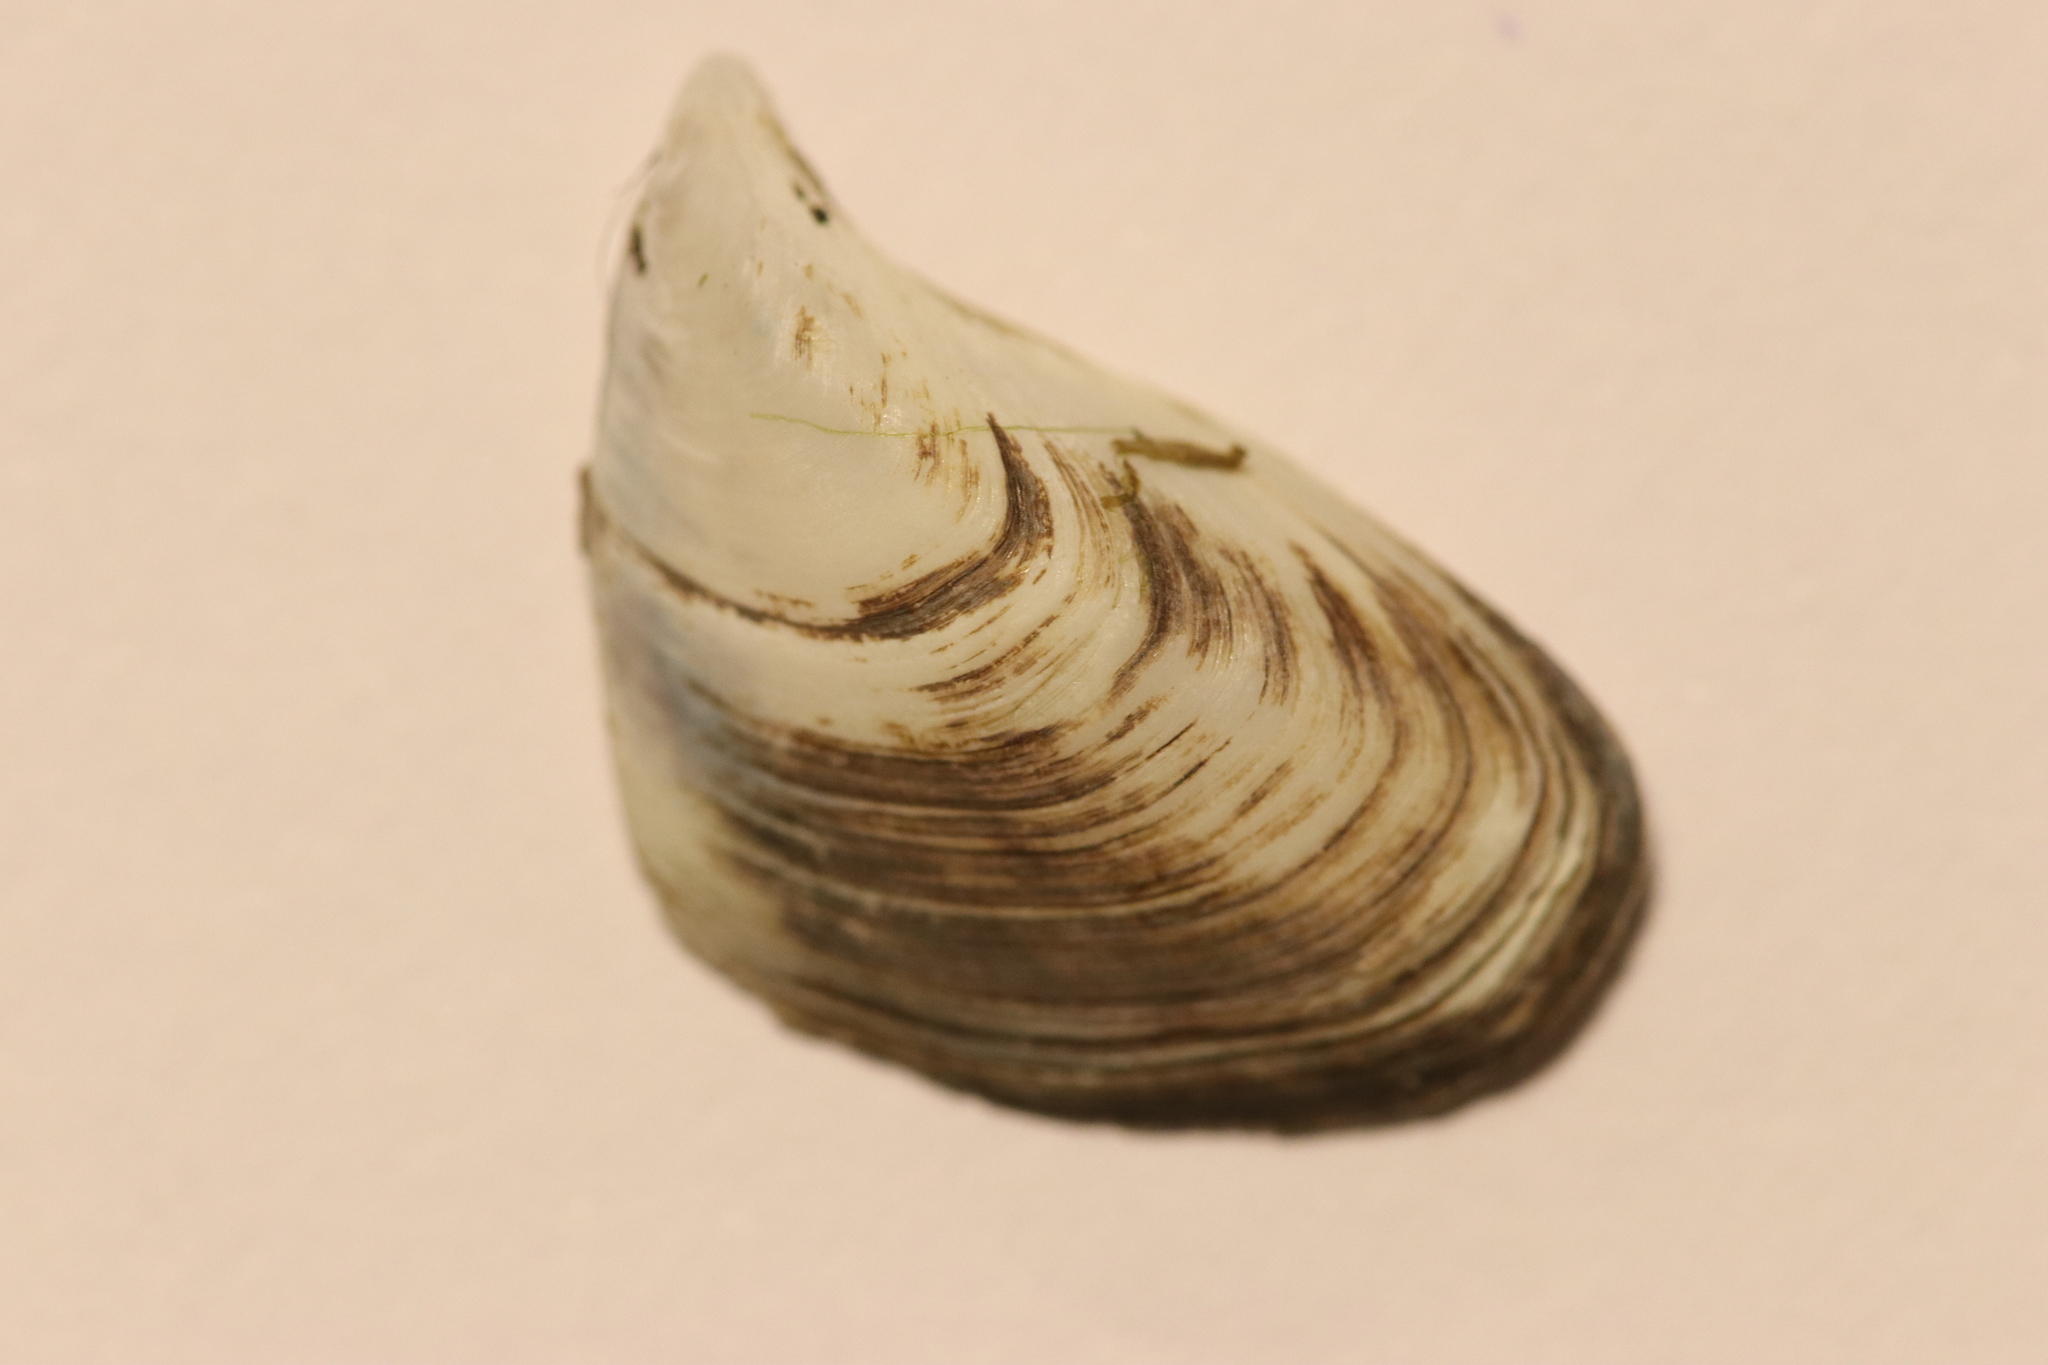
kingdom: Animalia
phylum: Mollusca
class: Bivalvia
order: Myida
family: Dreissenidae
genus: Dreissena
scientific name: Dreissena bugensis
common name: Quagga mussel
